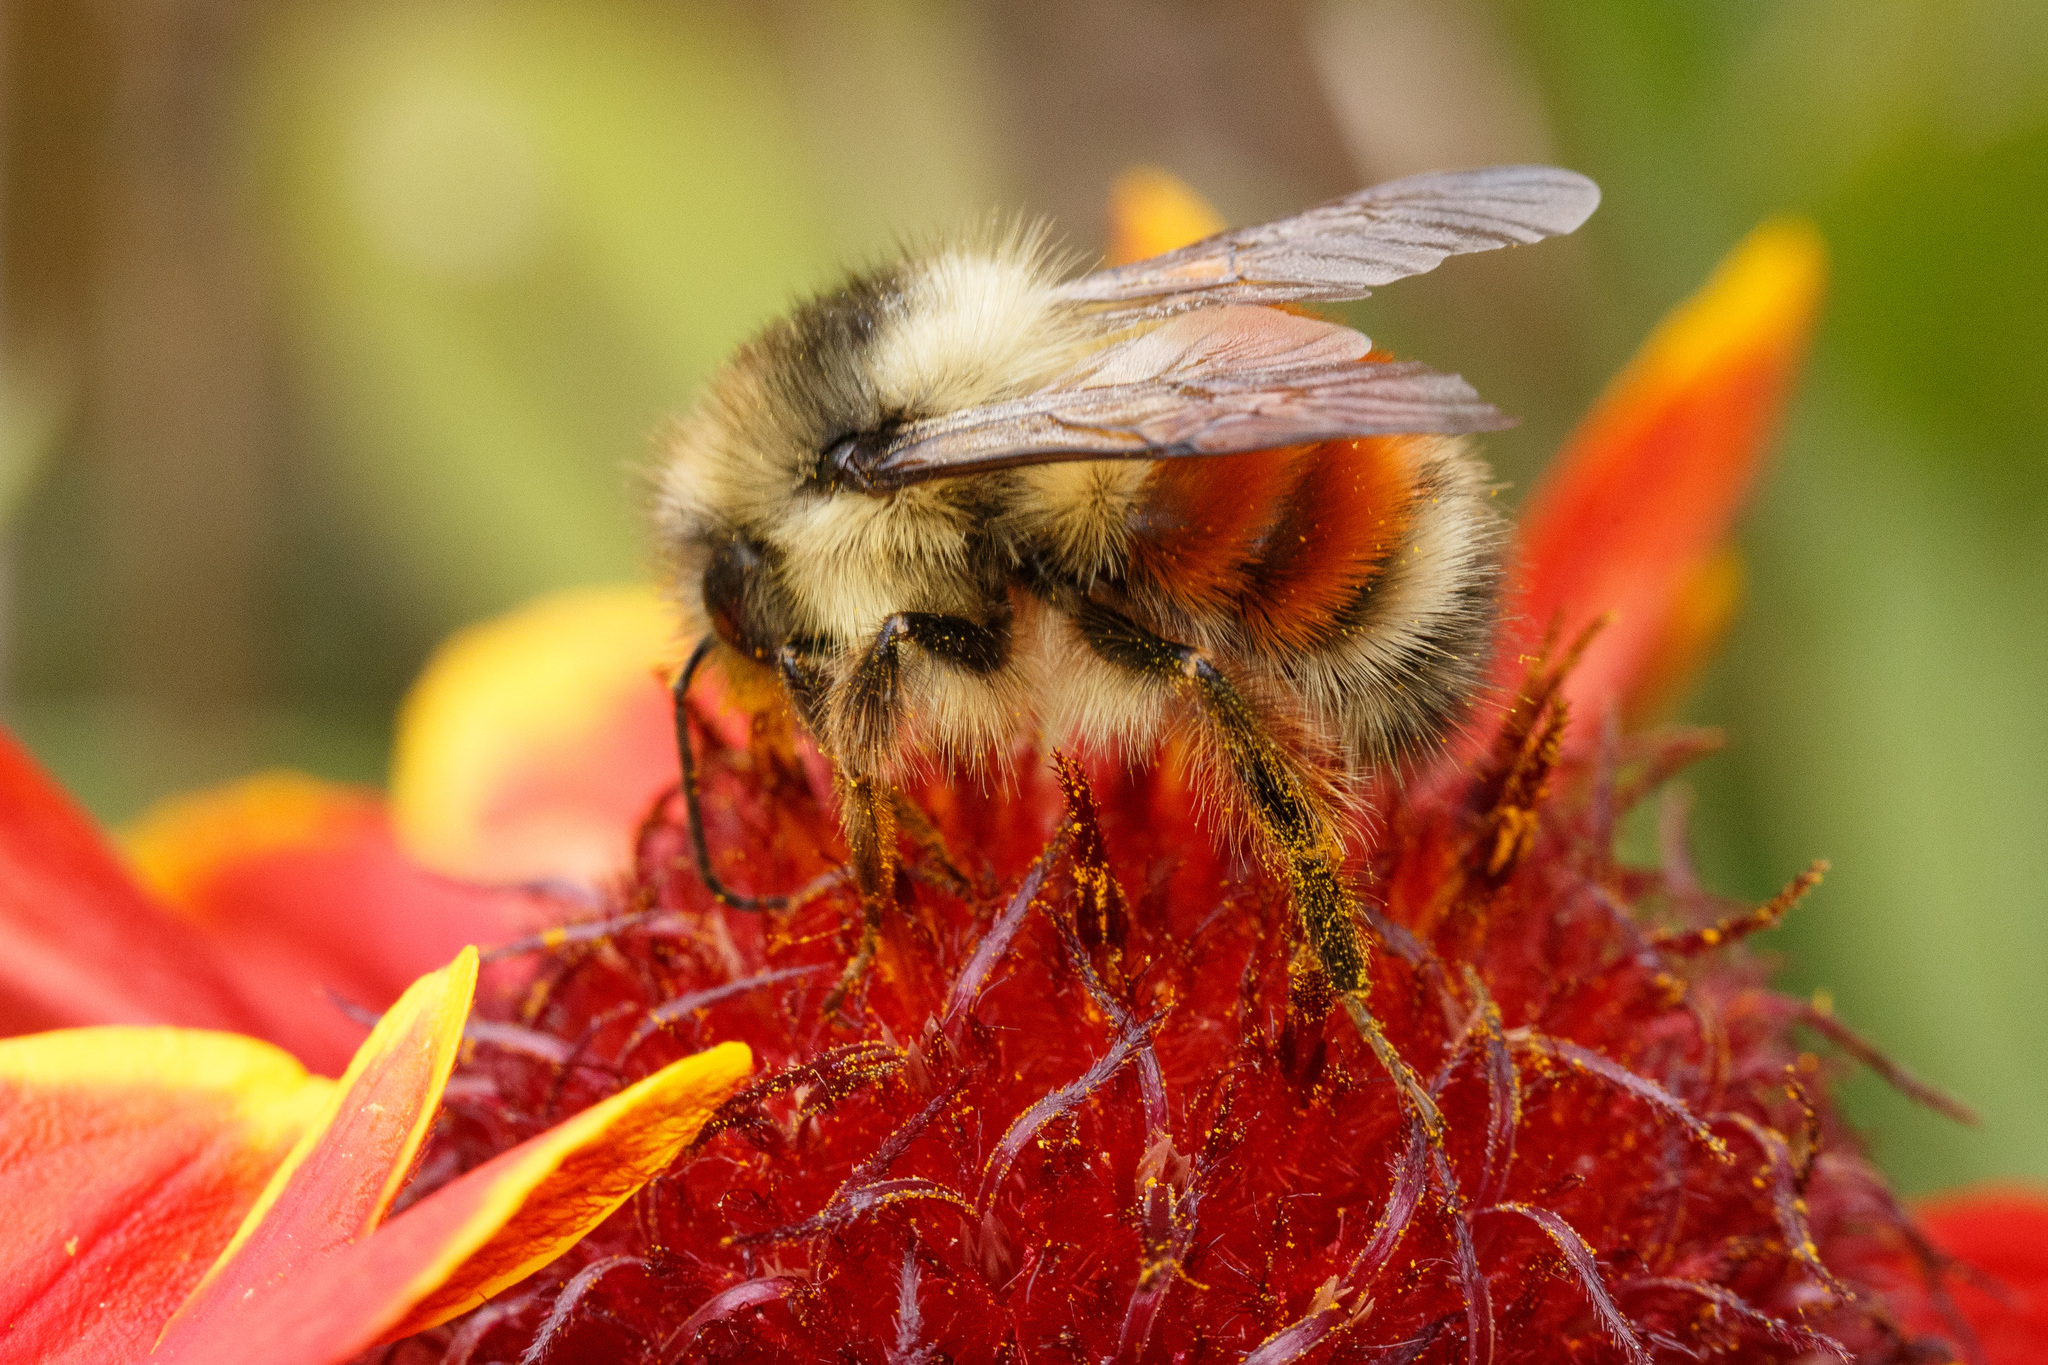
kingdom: Animalia
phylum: Arthropoda
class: Insecta
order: Hymenoptera
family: Apidae
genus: Bombus
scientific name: Bombus melanopygus
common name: Black tail bumble bee
